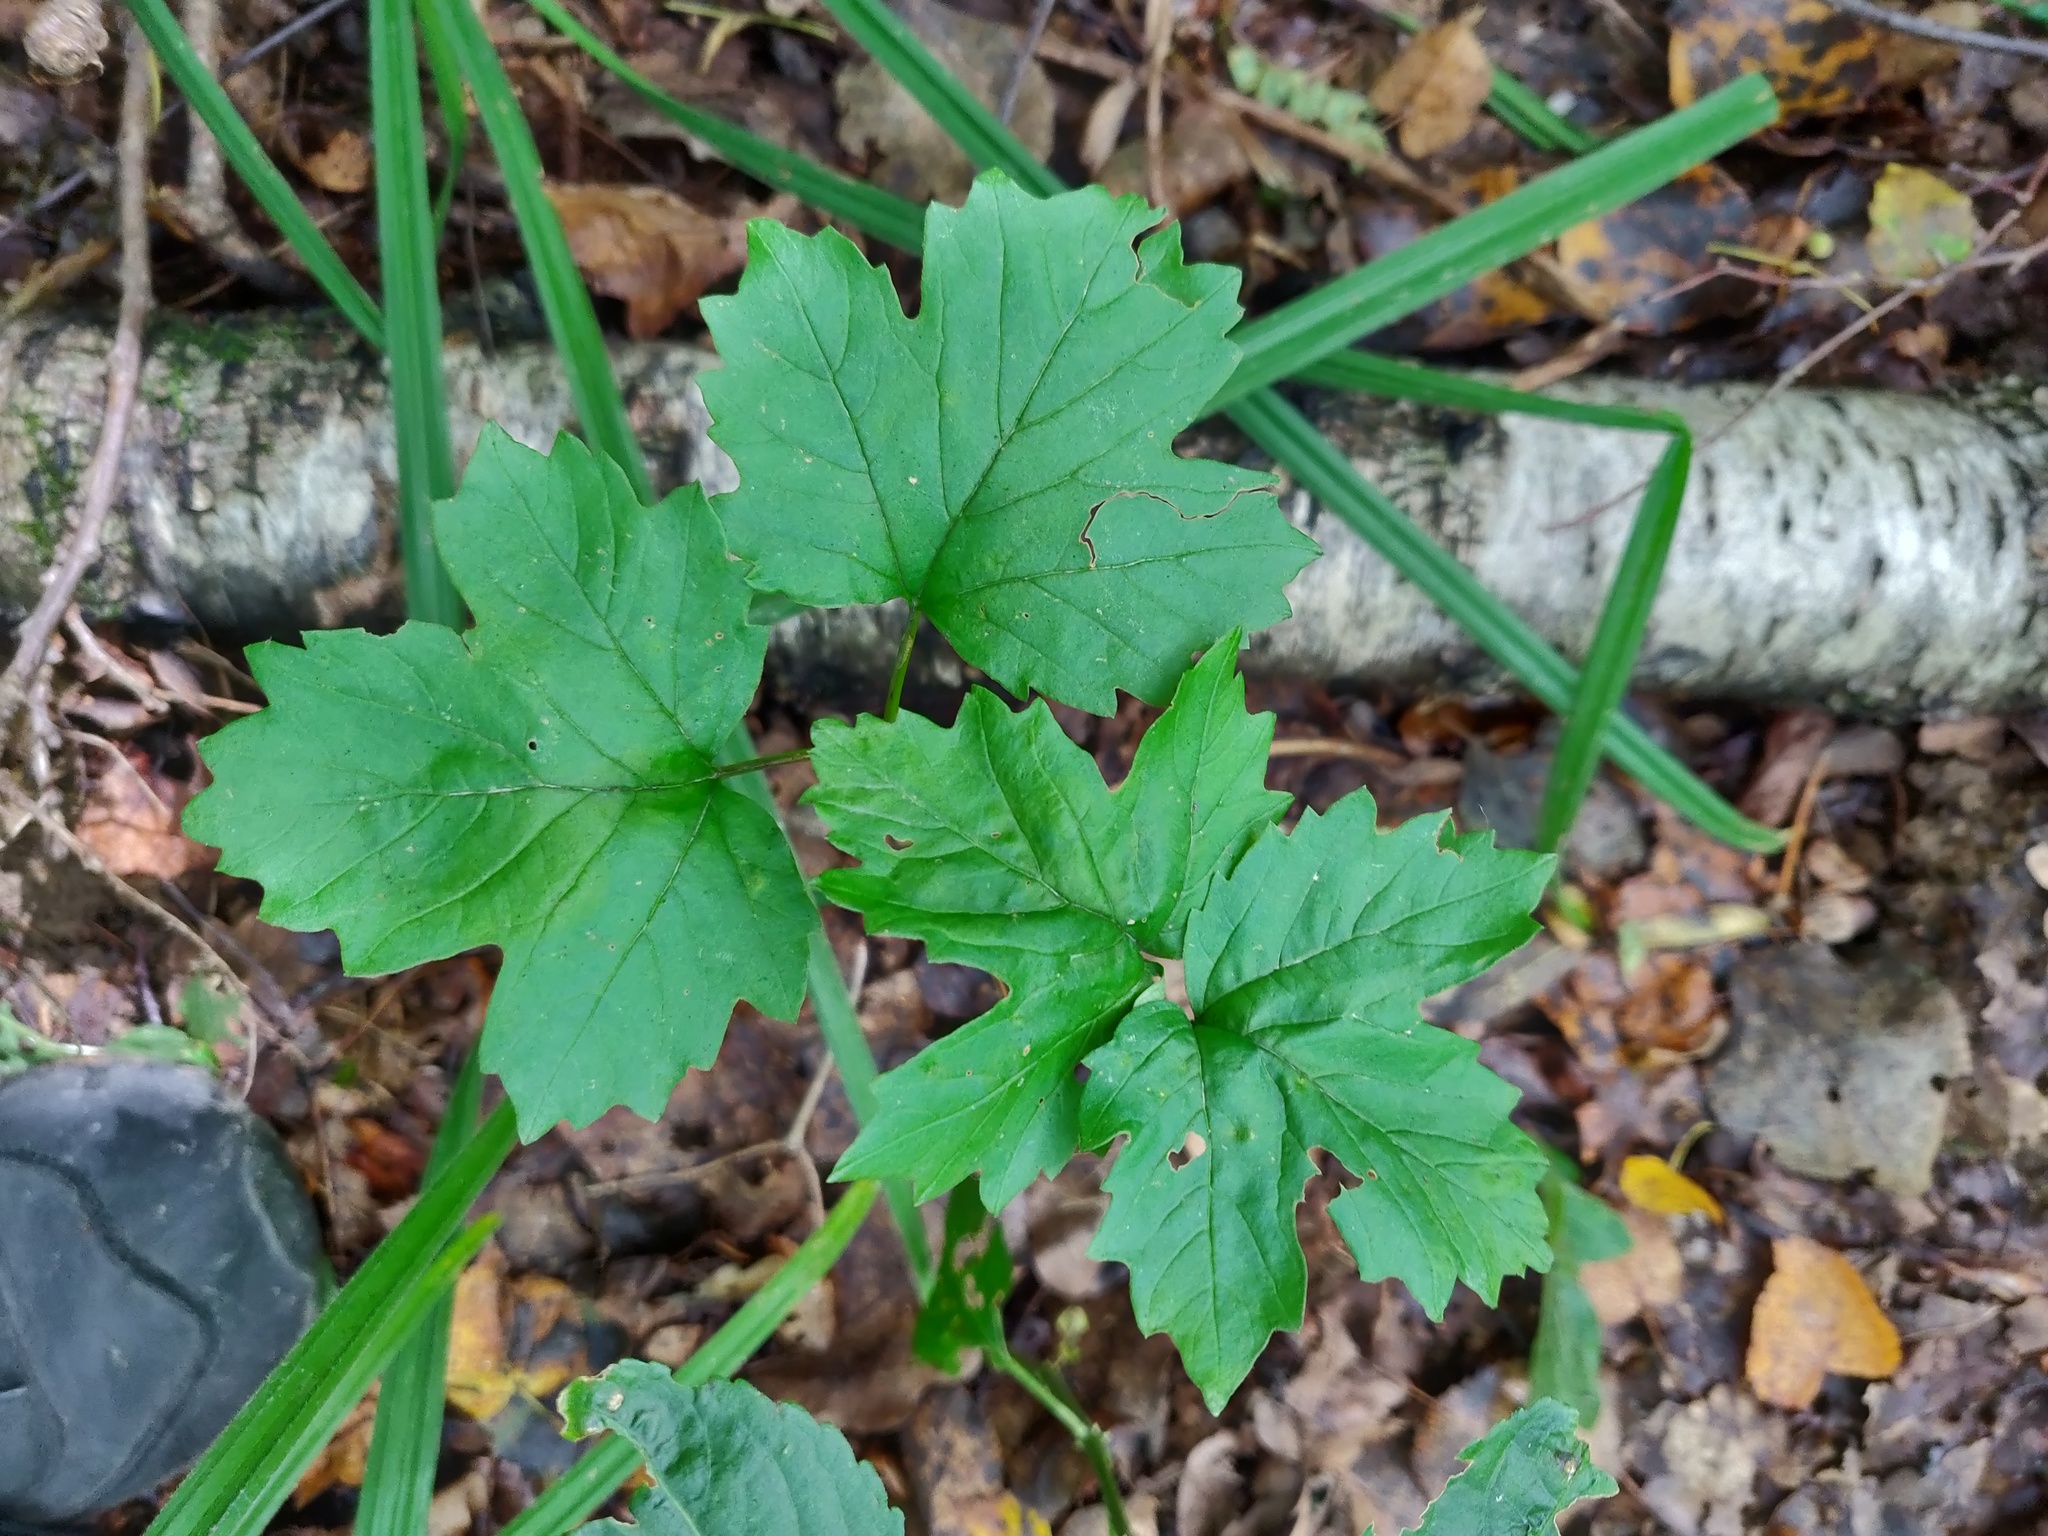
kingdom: Plantae
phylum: Tracheophyta
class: Magnoliopsida
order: Dipsacales
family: Viburnaceae
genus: Viburnum
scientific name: Viburnum opulus
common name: Guelder-rose
